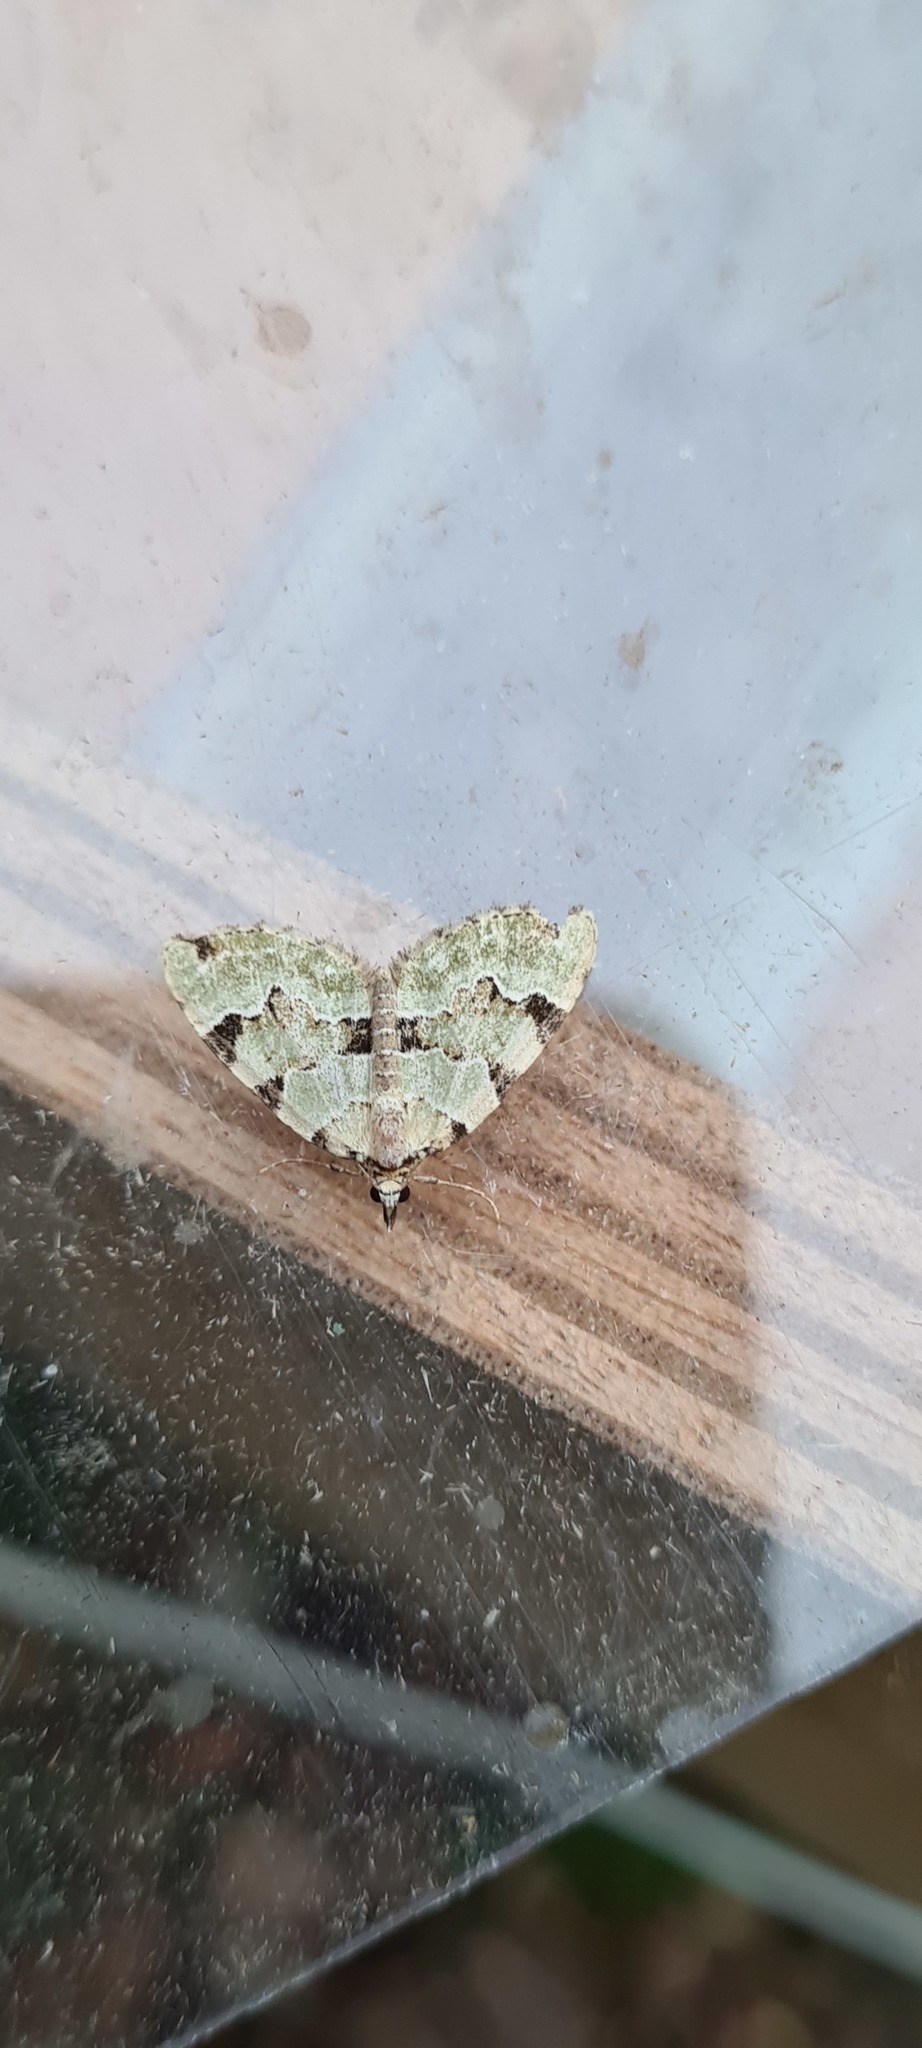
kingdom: Animalia
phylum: Arthropoda
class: Insecta
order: Lepidoptera
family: Geometridae
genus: Colostygia
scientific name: Colostygia pectinataria
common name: Green carpet
